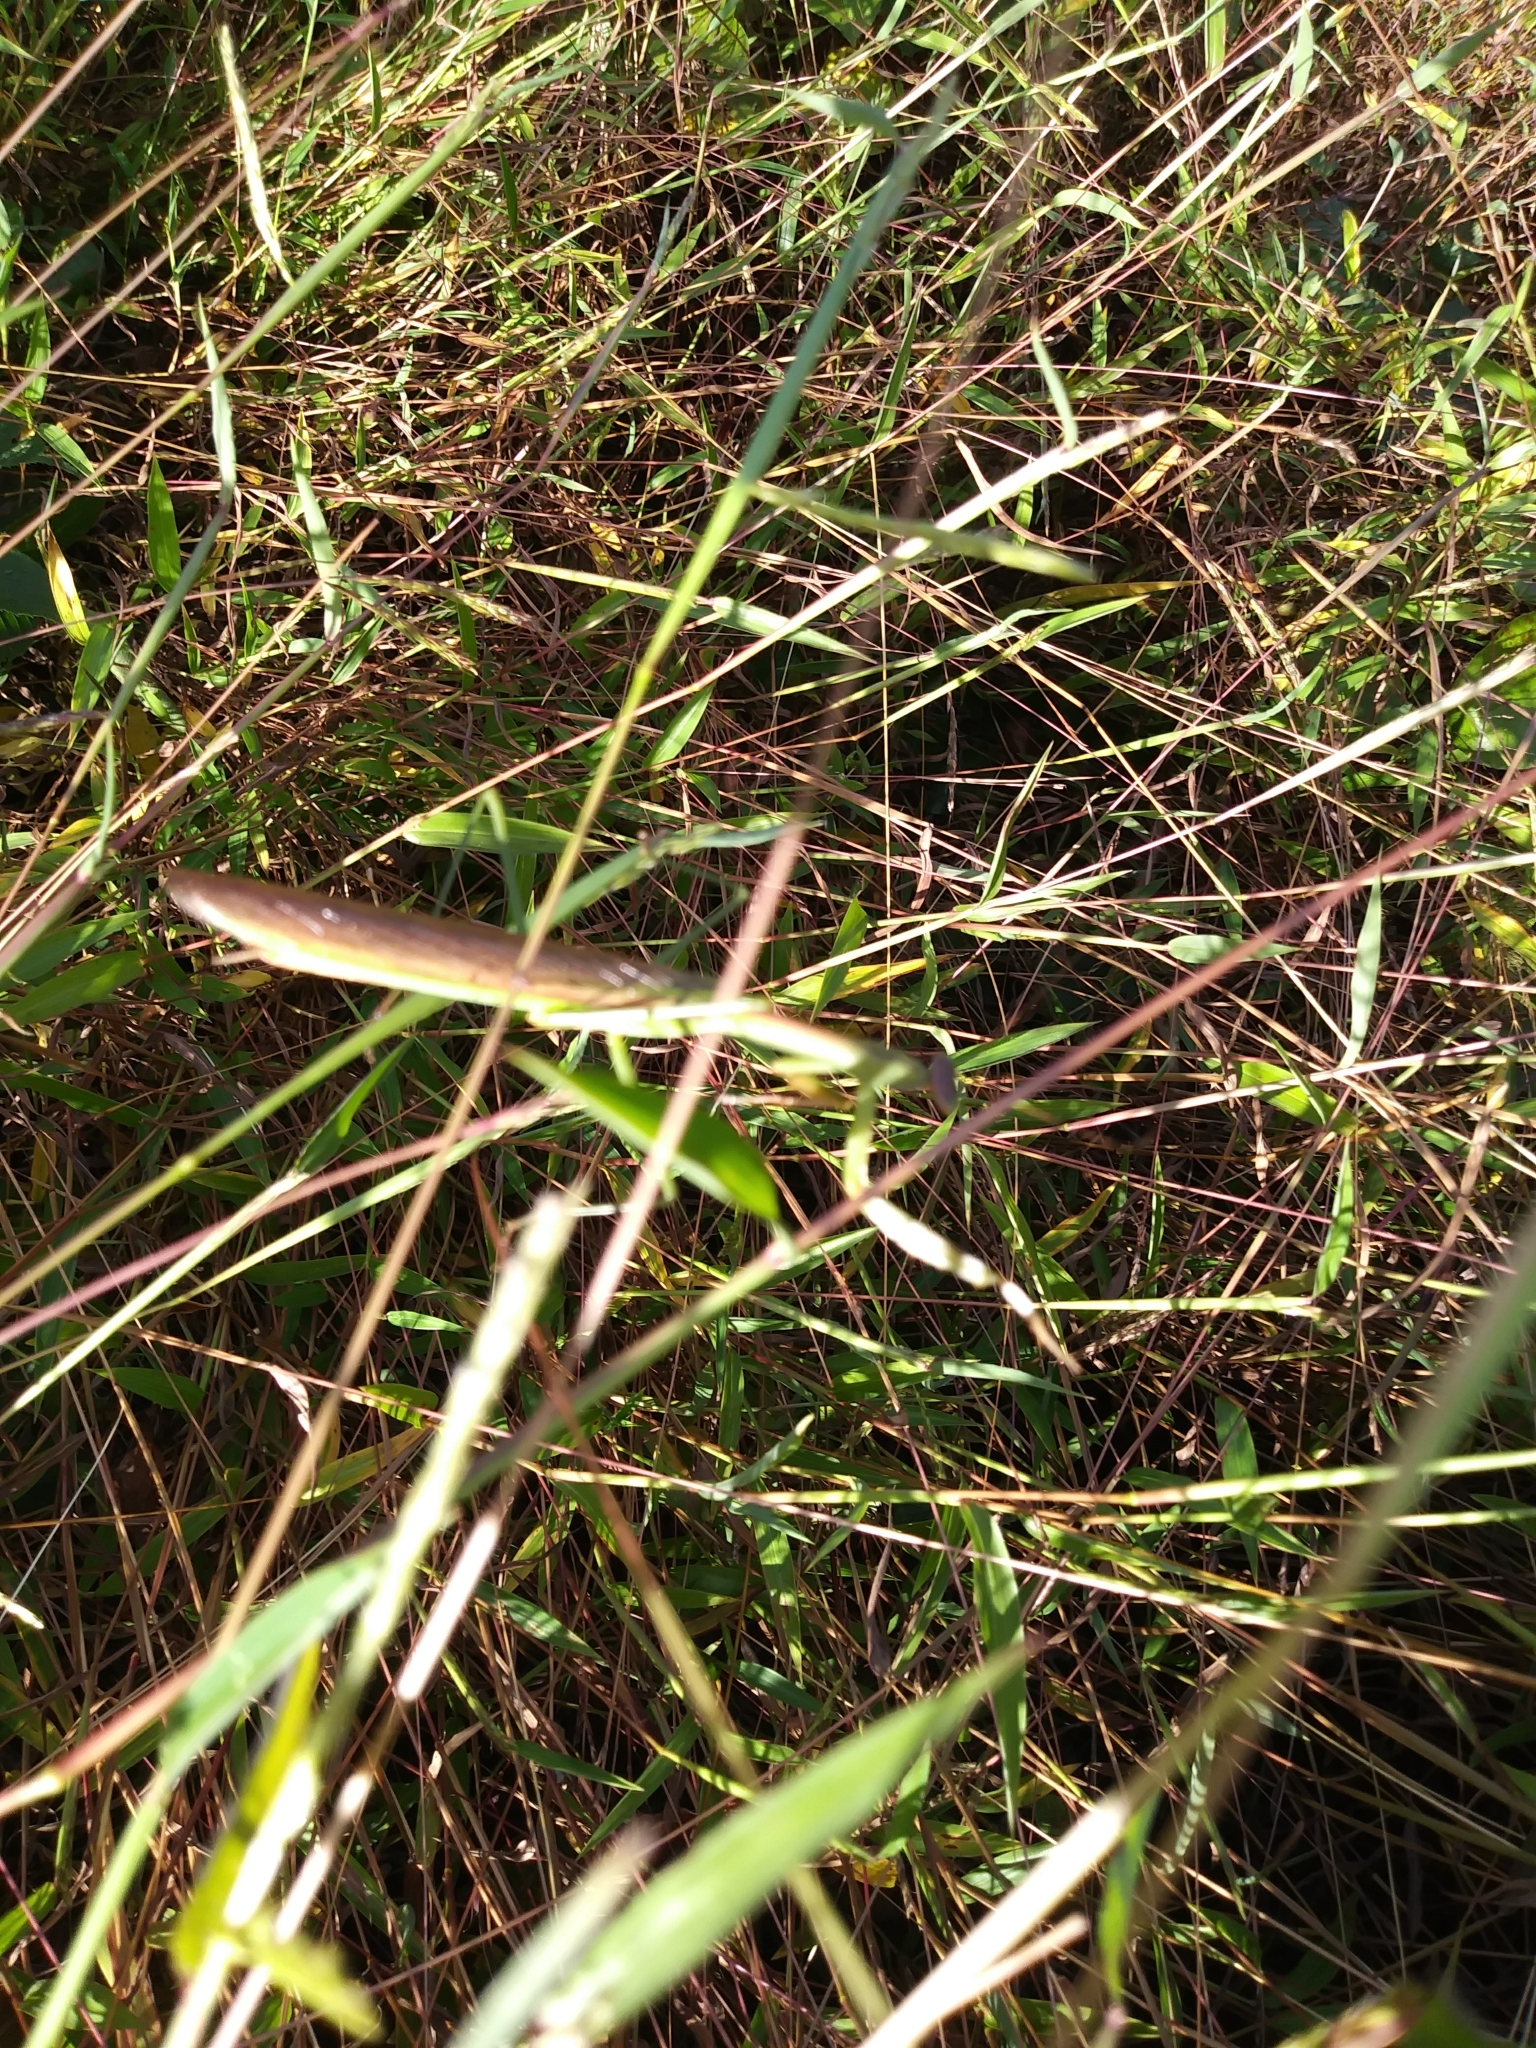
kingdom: Animalia
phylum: Arthropoda
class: Insecta
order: Mantodea
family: Mantidae
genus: Tenodera
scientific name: Tenodera sinensis
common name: Chinese mantis
